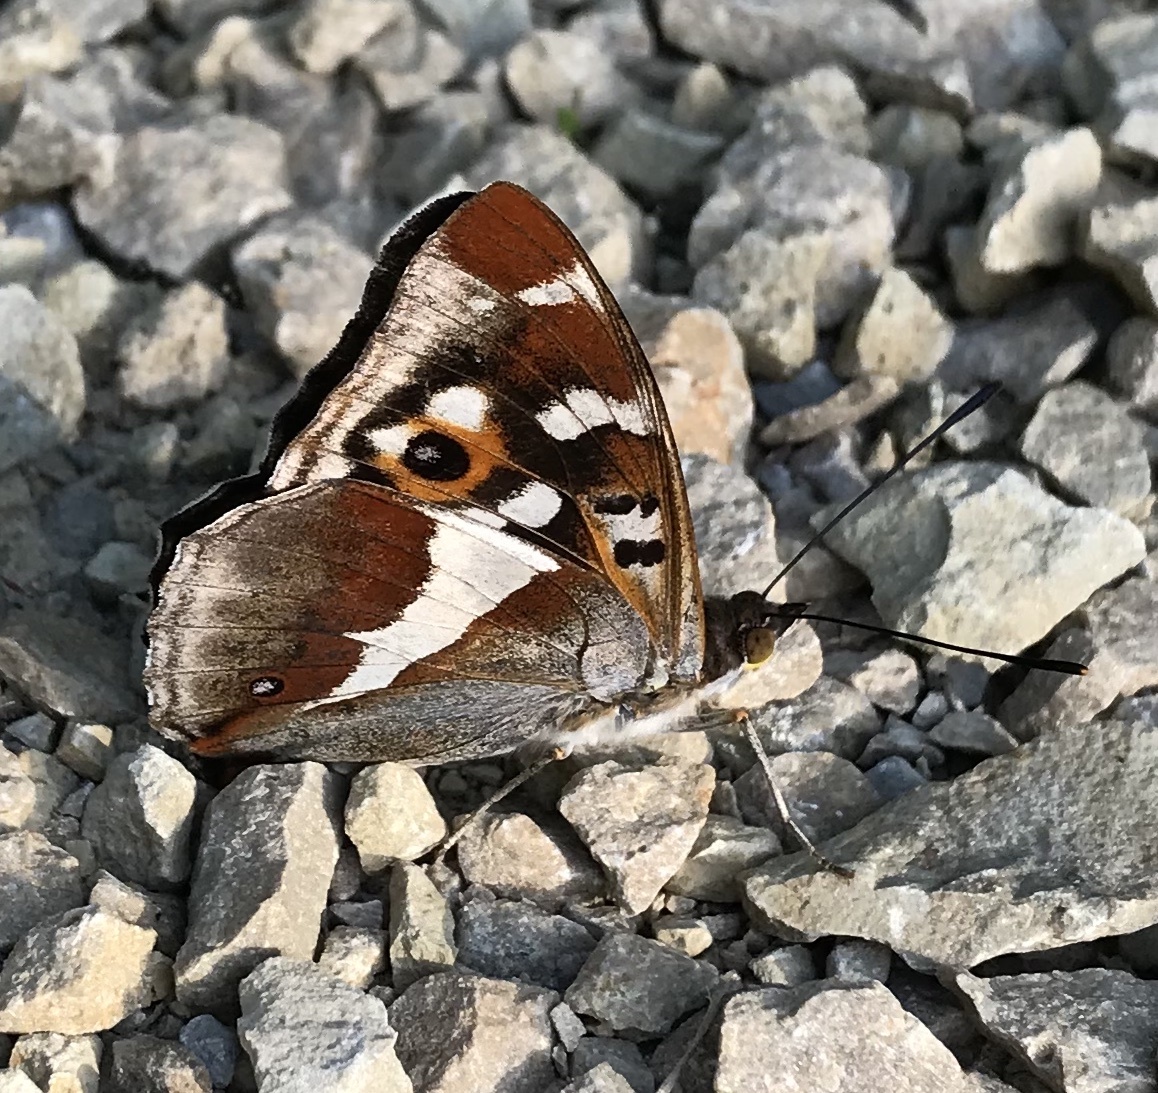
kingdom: Animalia
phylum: Arthropoda
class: Insecta
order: Lepidoptera
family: Nymphalidae
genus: Apatura
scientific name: Apatura iris
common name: Purple emperor
